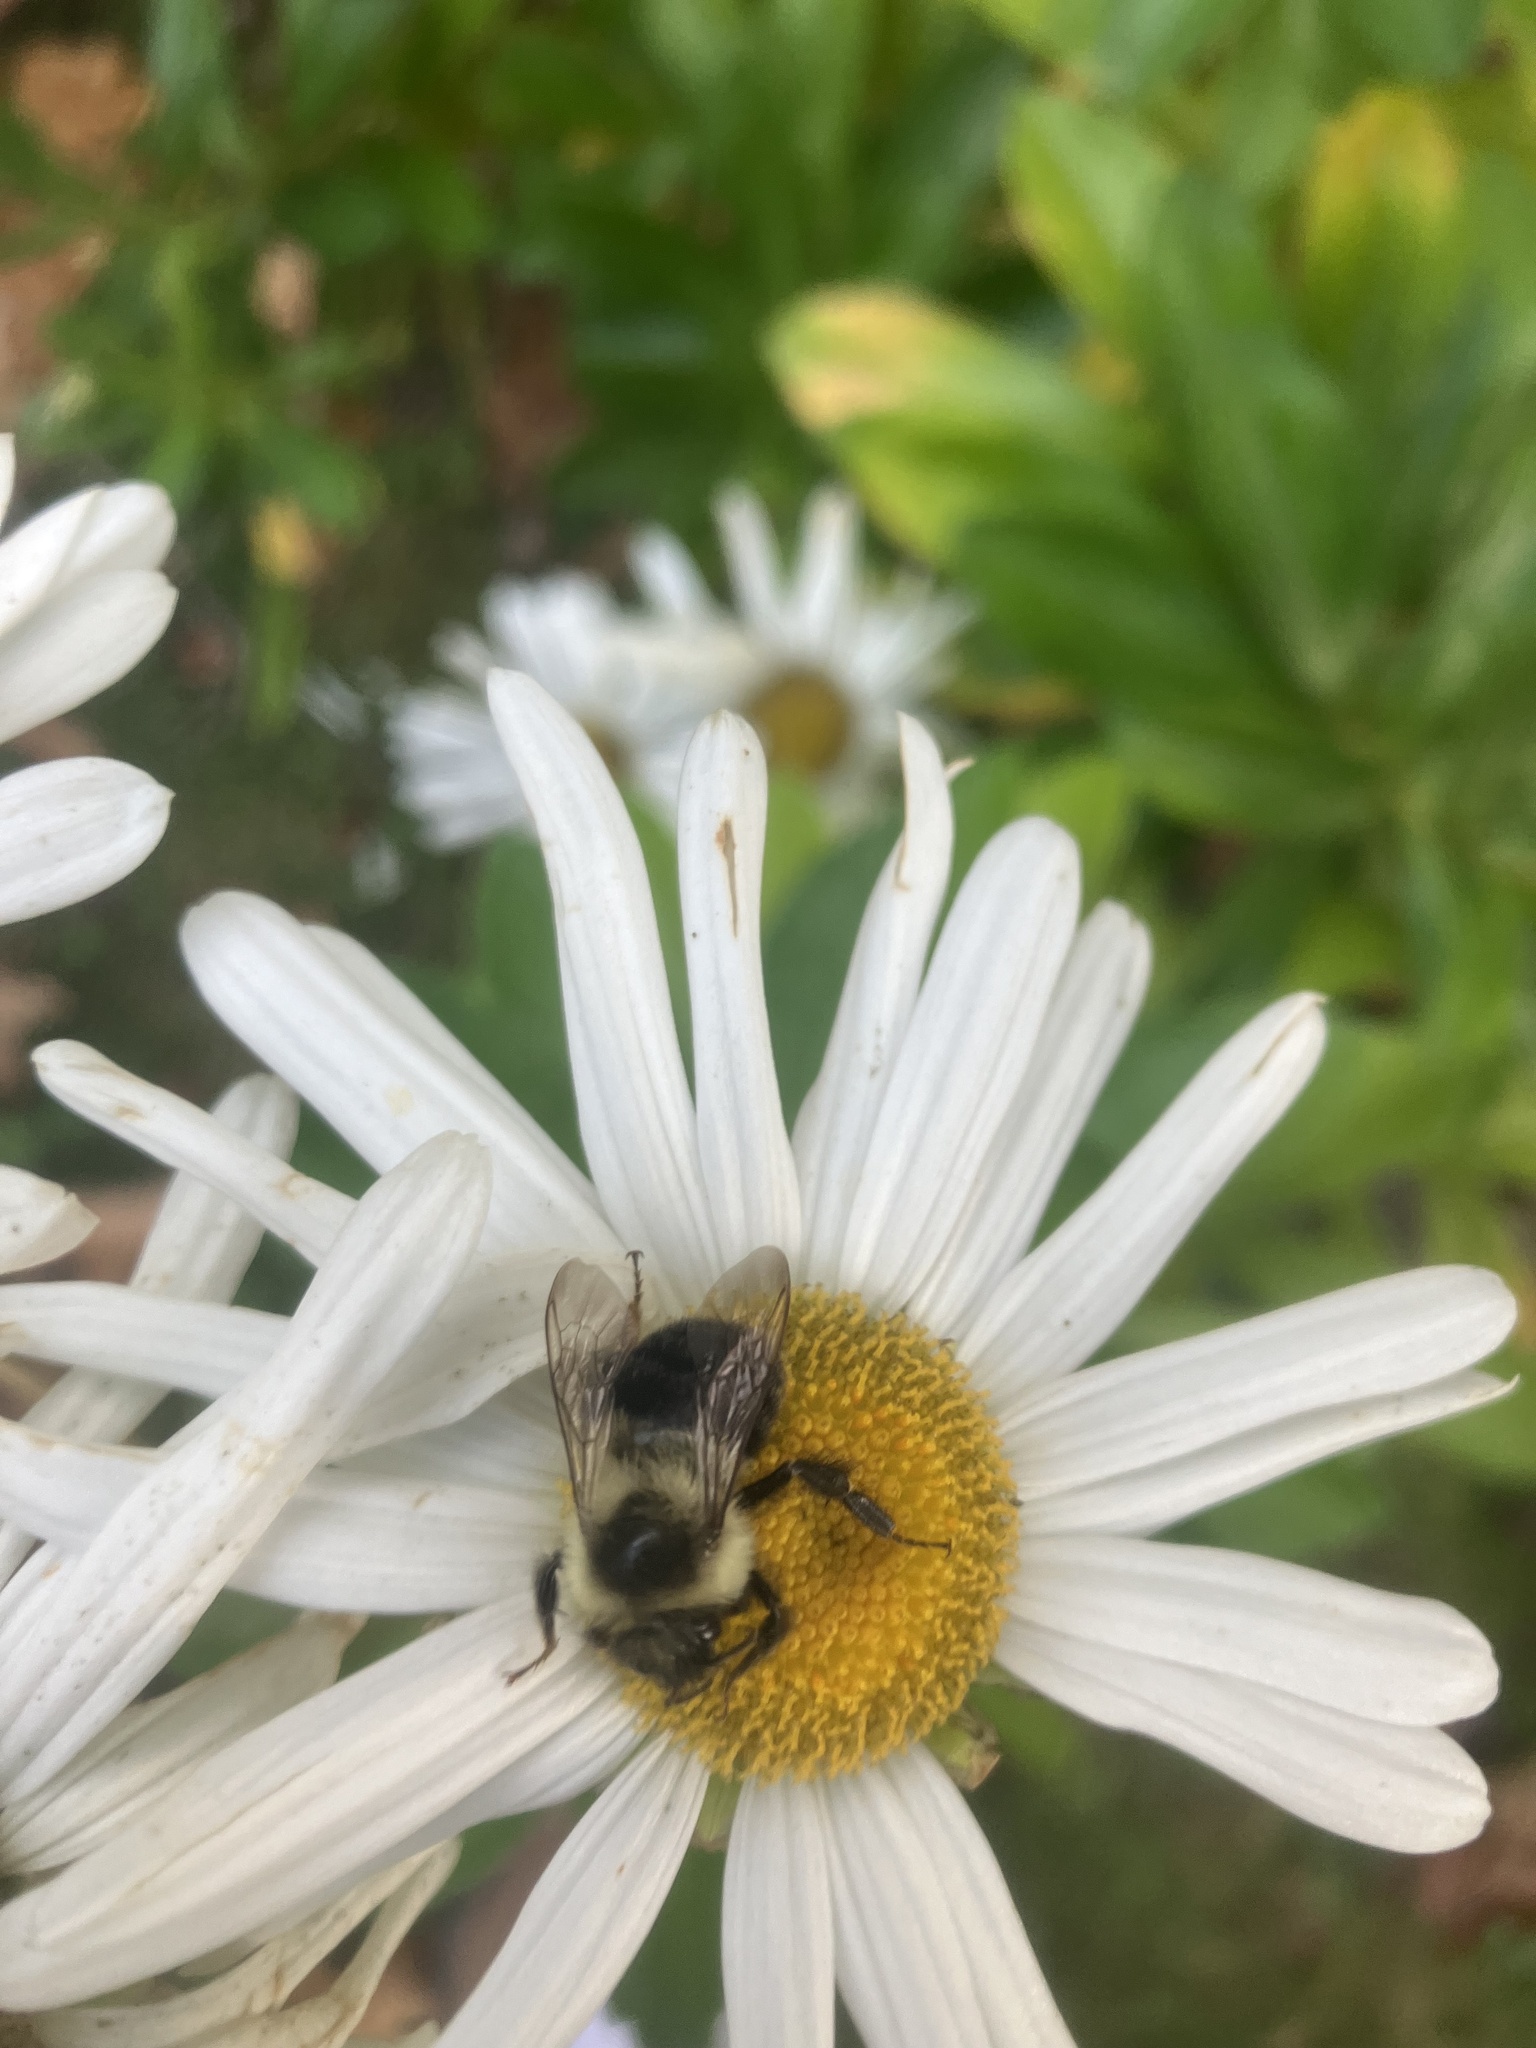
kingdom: Animalia
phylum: Arthropoda
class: Insecta
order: Hymenoptera
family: Apidae
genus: Bombus
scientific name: Bombus impatiens
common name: Common eastern bumble bee
